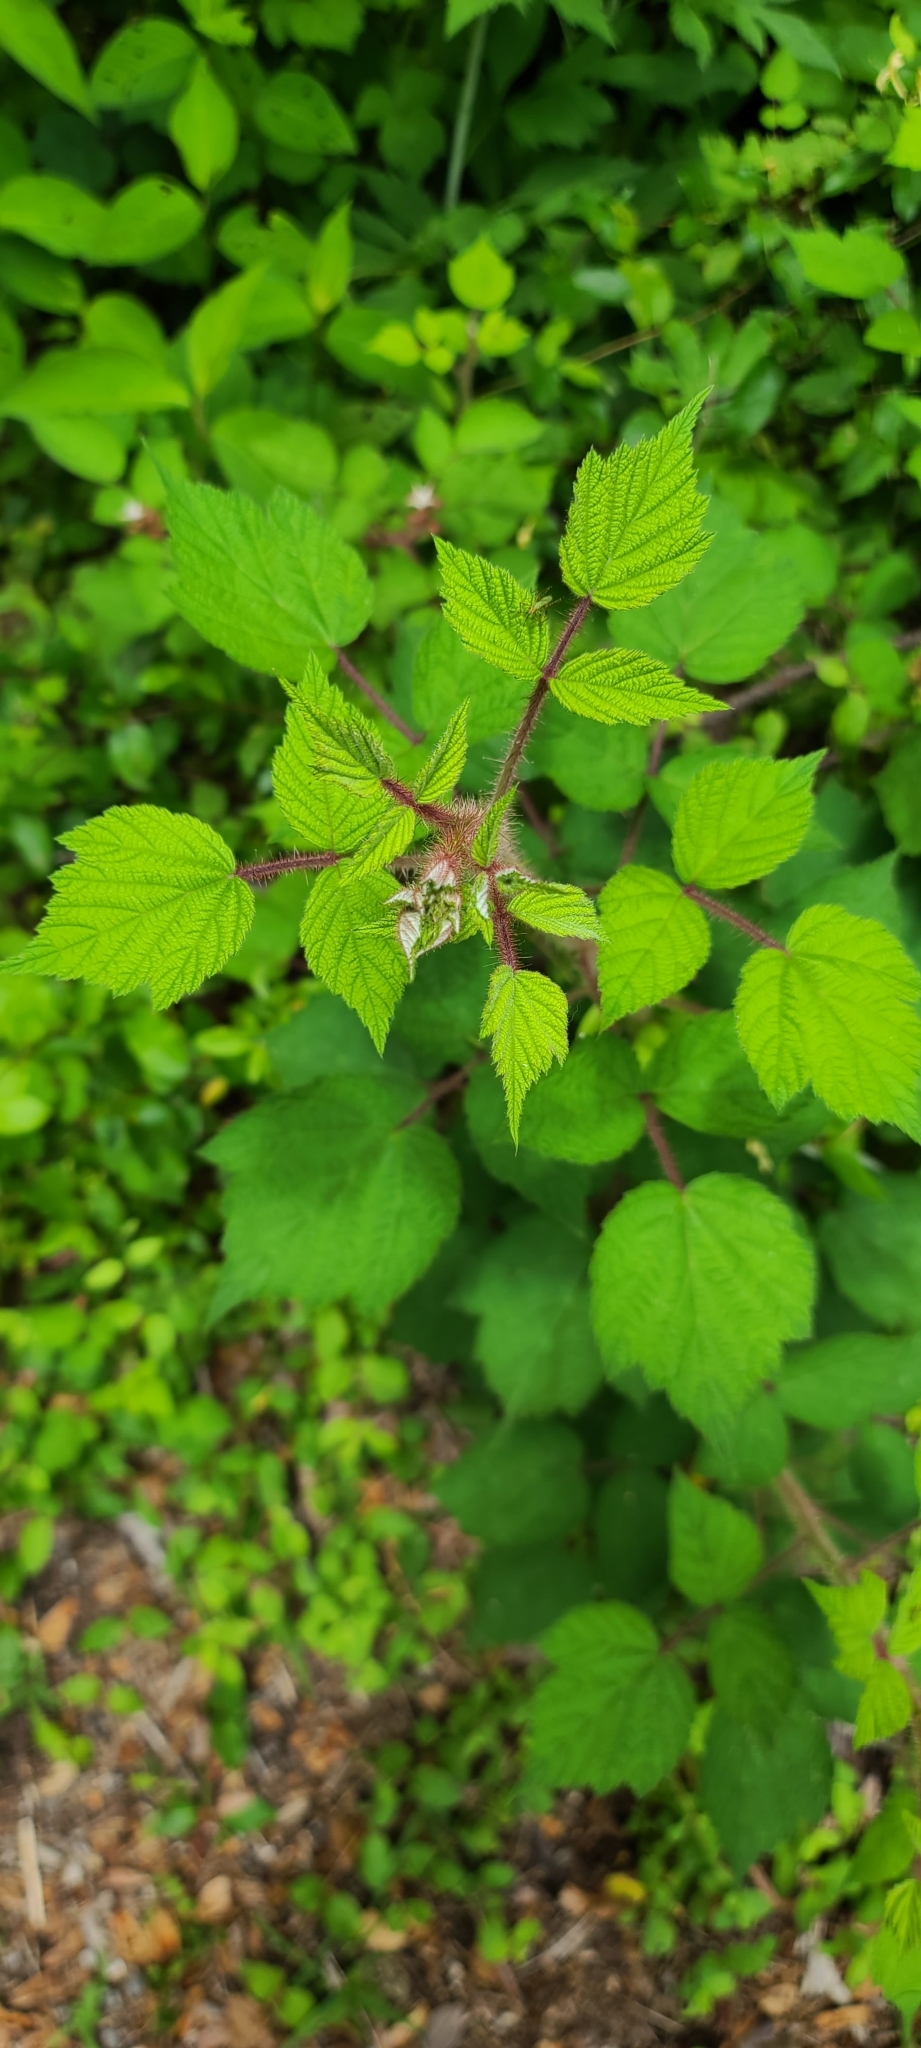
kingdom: Plantae
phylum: Tracheophyta
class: Magnoliopsida
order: Rosales
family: Rosaceae
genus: Rubus
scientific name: Rubus phoenicolasius
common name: Japanese wineberry
